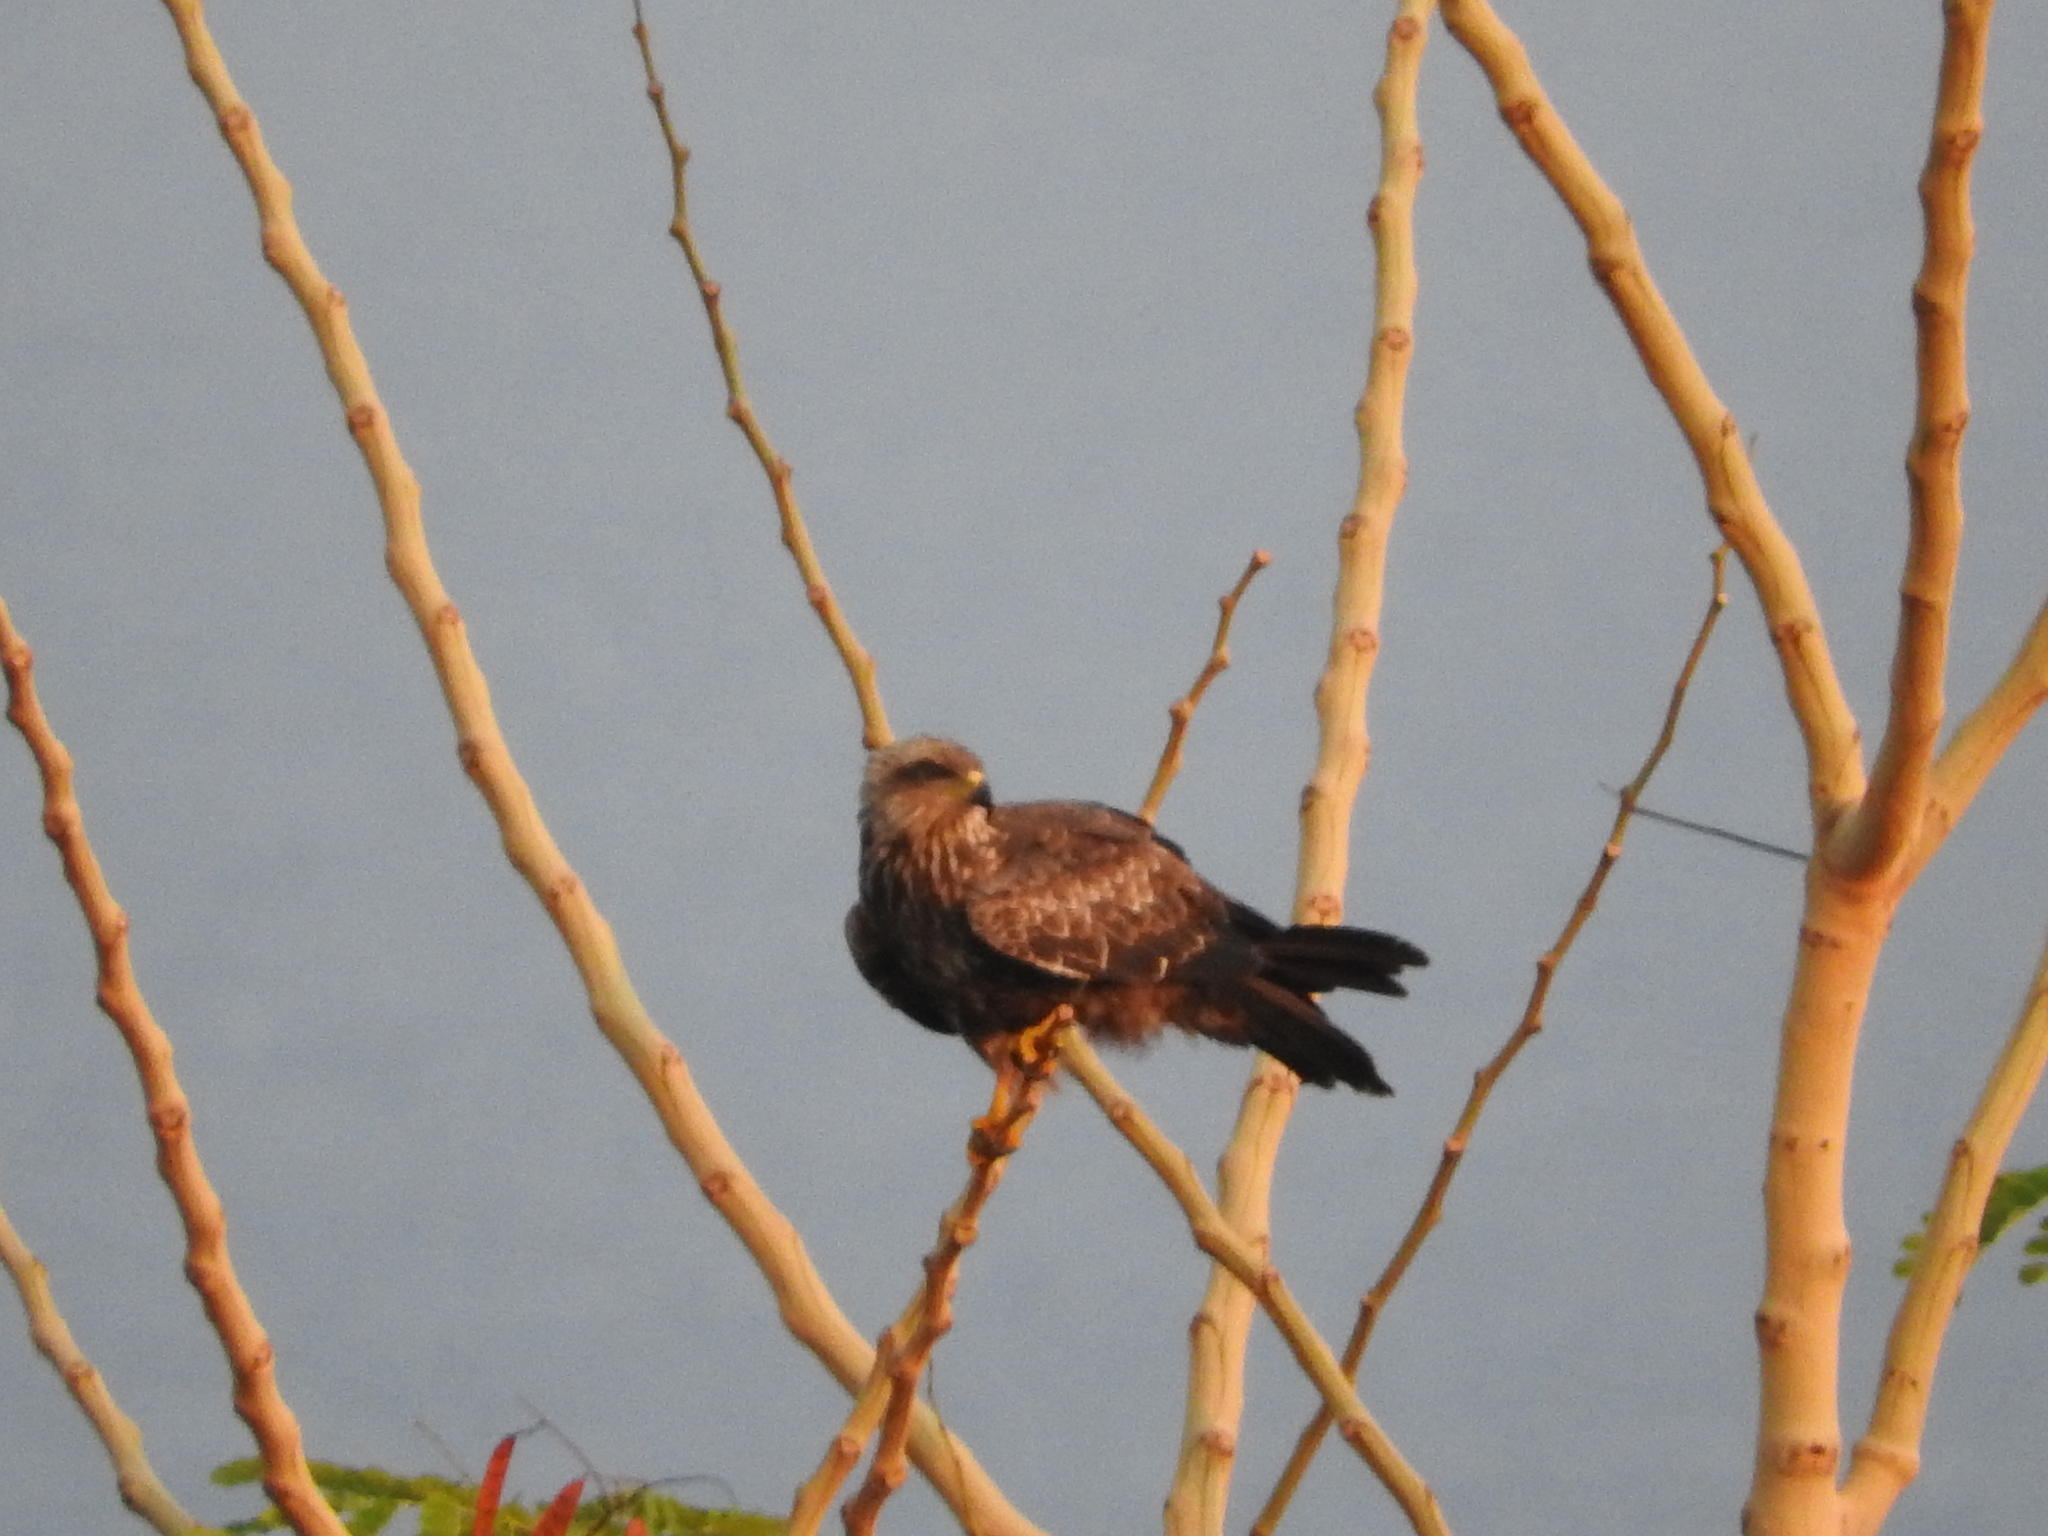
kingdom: Animalia
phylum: Chordata
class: Aves
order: Accipitriformes
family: Accipitridae
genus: Milvus
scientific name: Milvus migrans
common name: Black kite
